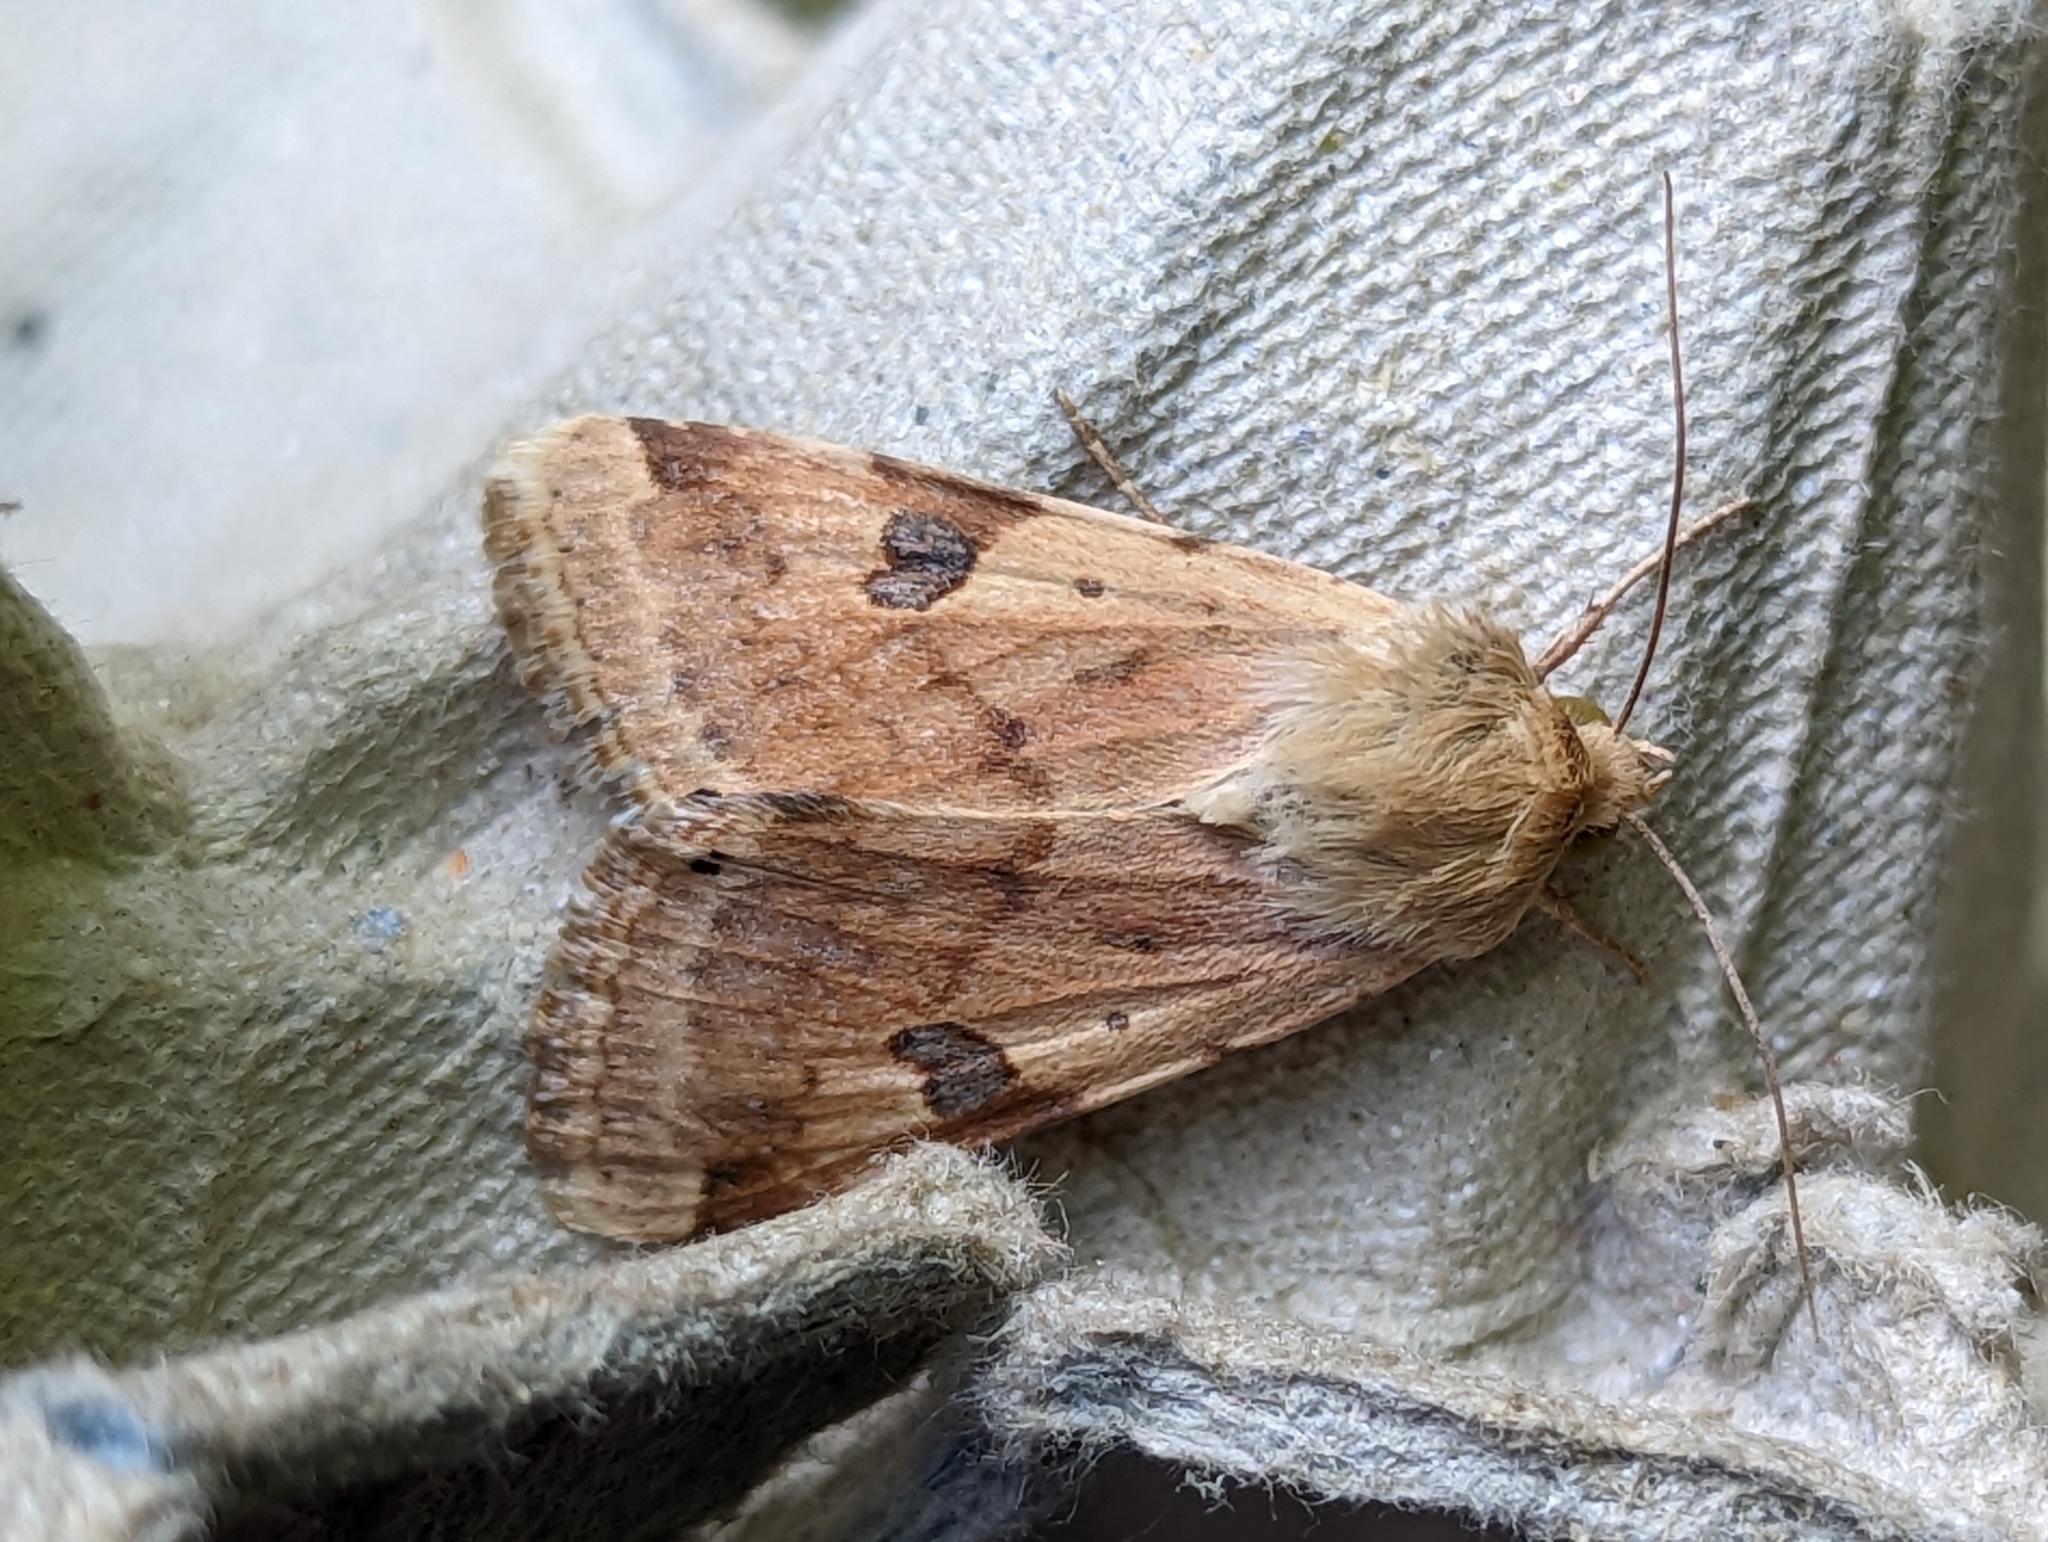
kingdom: Animalia
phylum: Arthropoda
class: Insecta
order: Lepidoptera
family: Noctuidae
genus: Heliothis
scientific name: Heliothis peltigera
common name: Bordered straw
